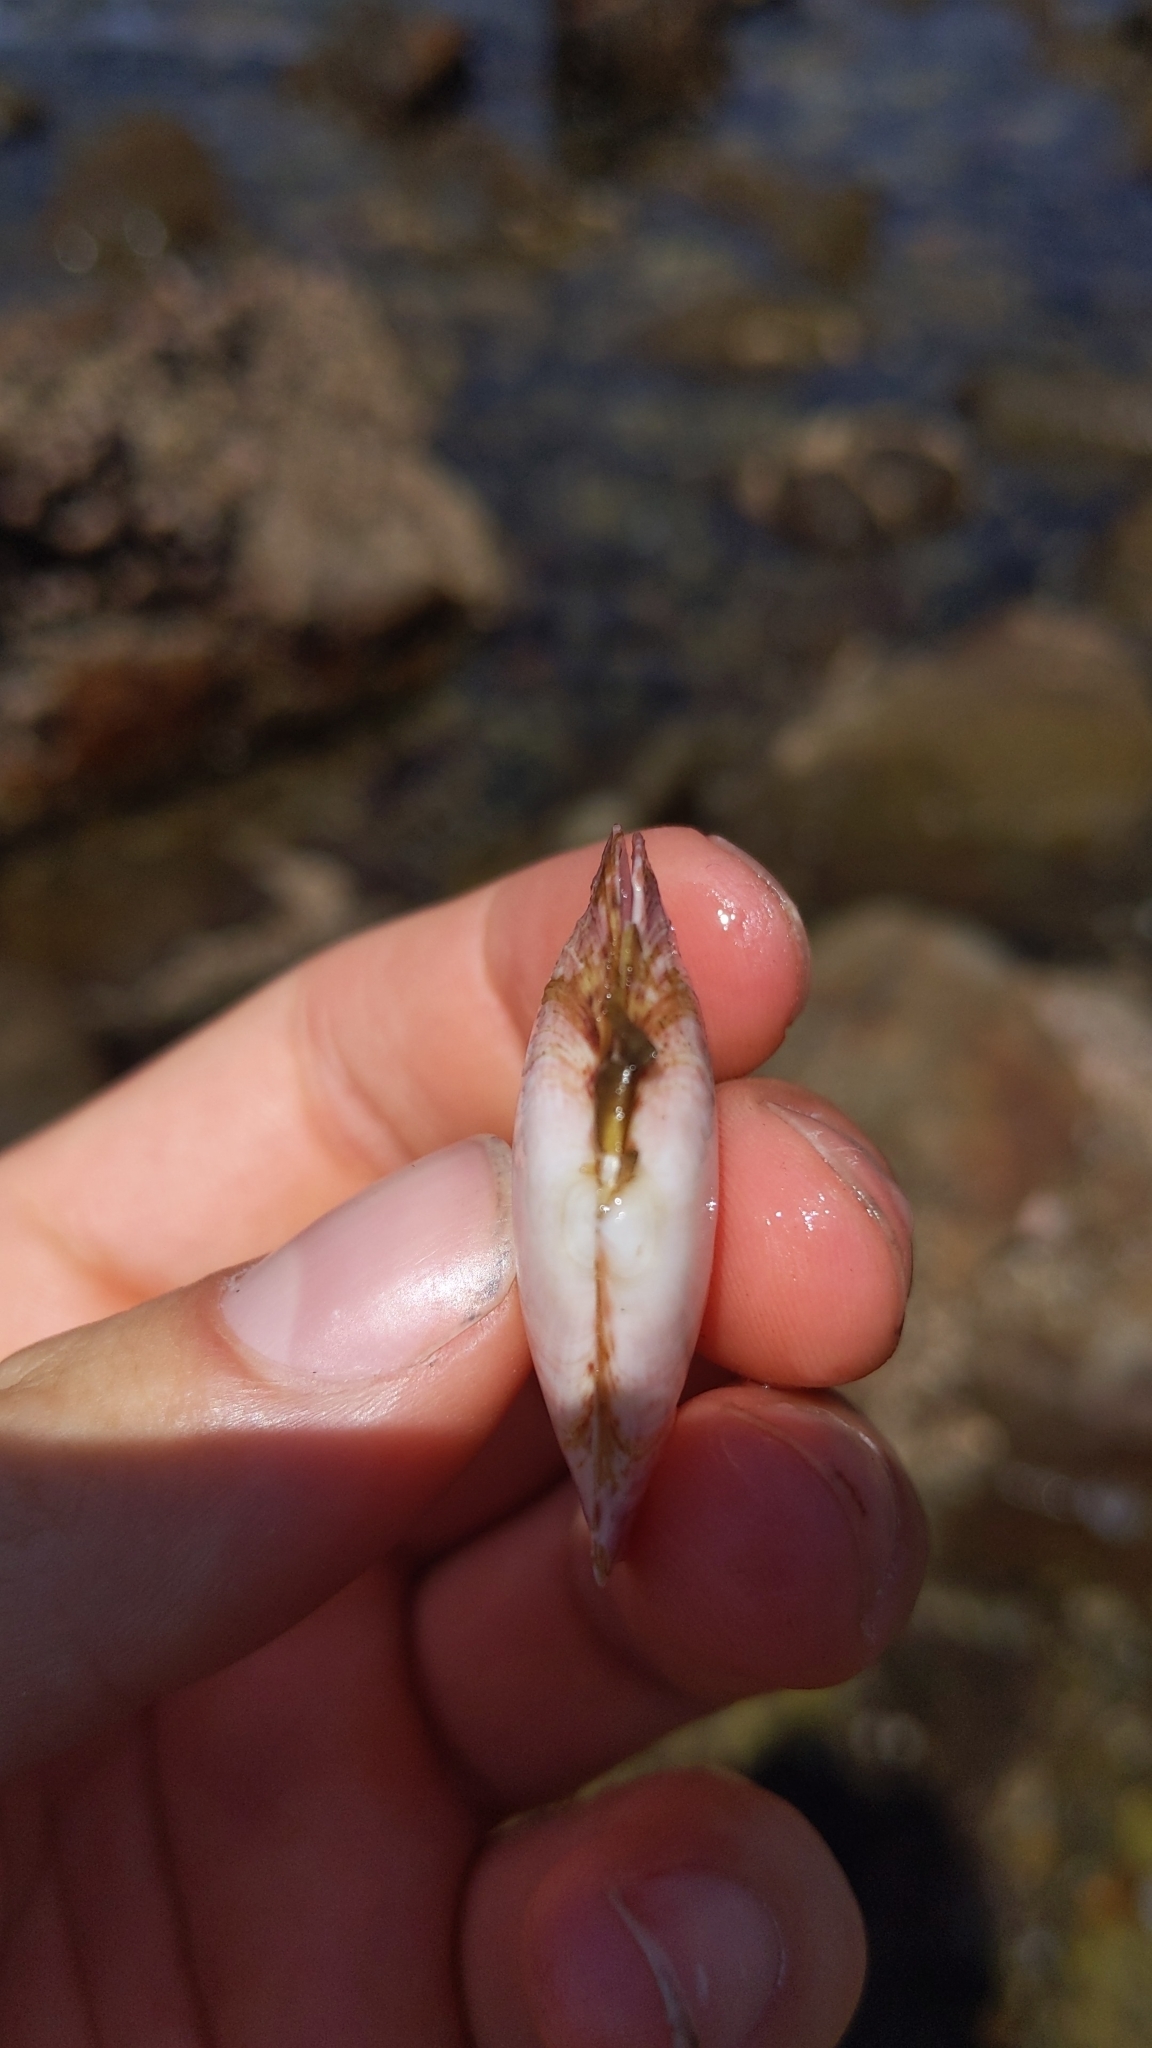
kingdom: Animalia
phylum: Mollusca
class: Bivalvia
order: Cardiida
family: Psammobiidae
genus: Gari
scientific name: Gari californica
